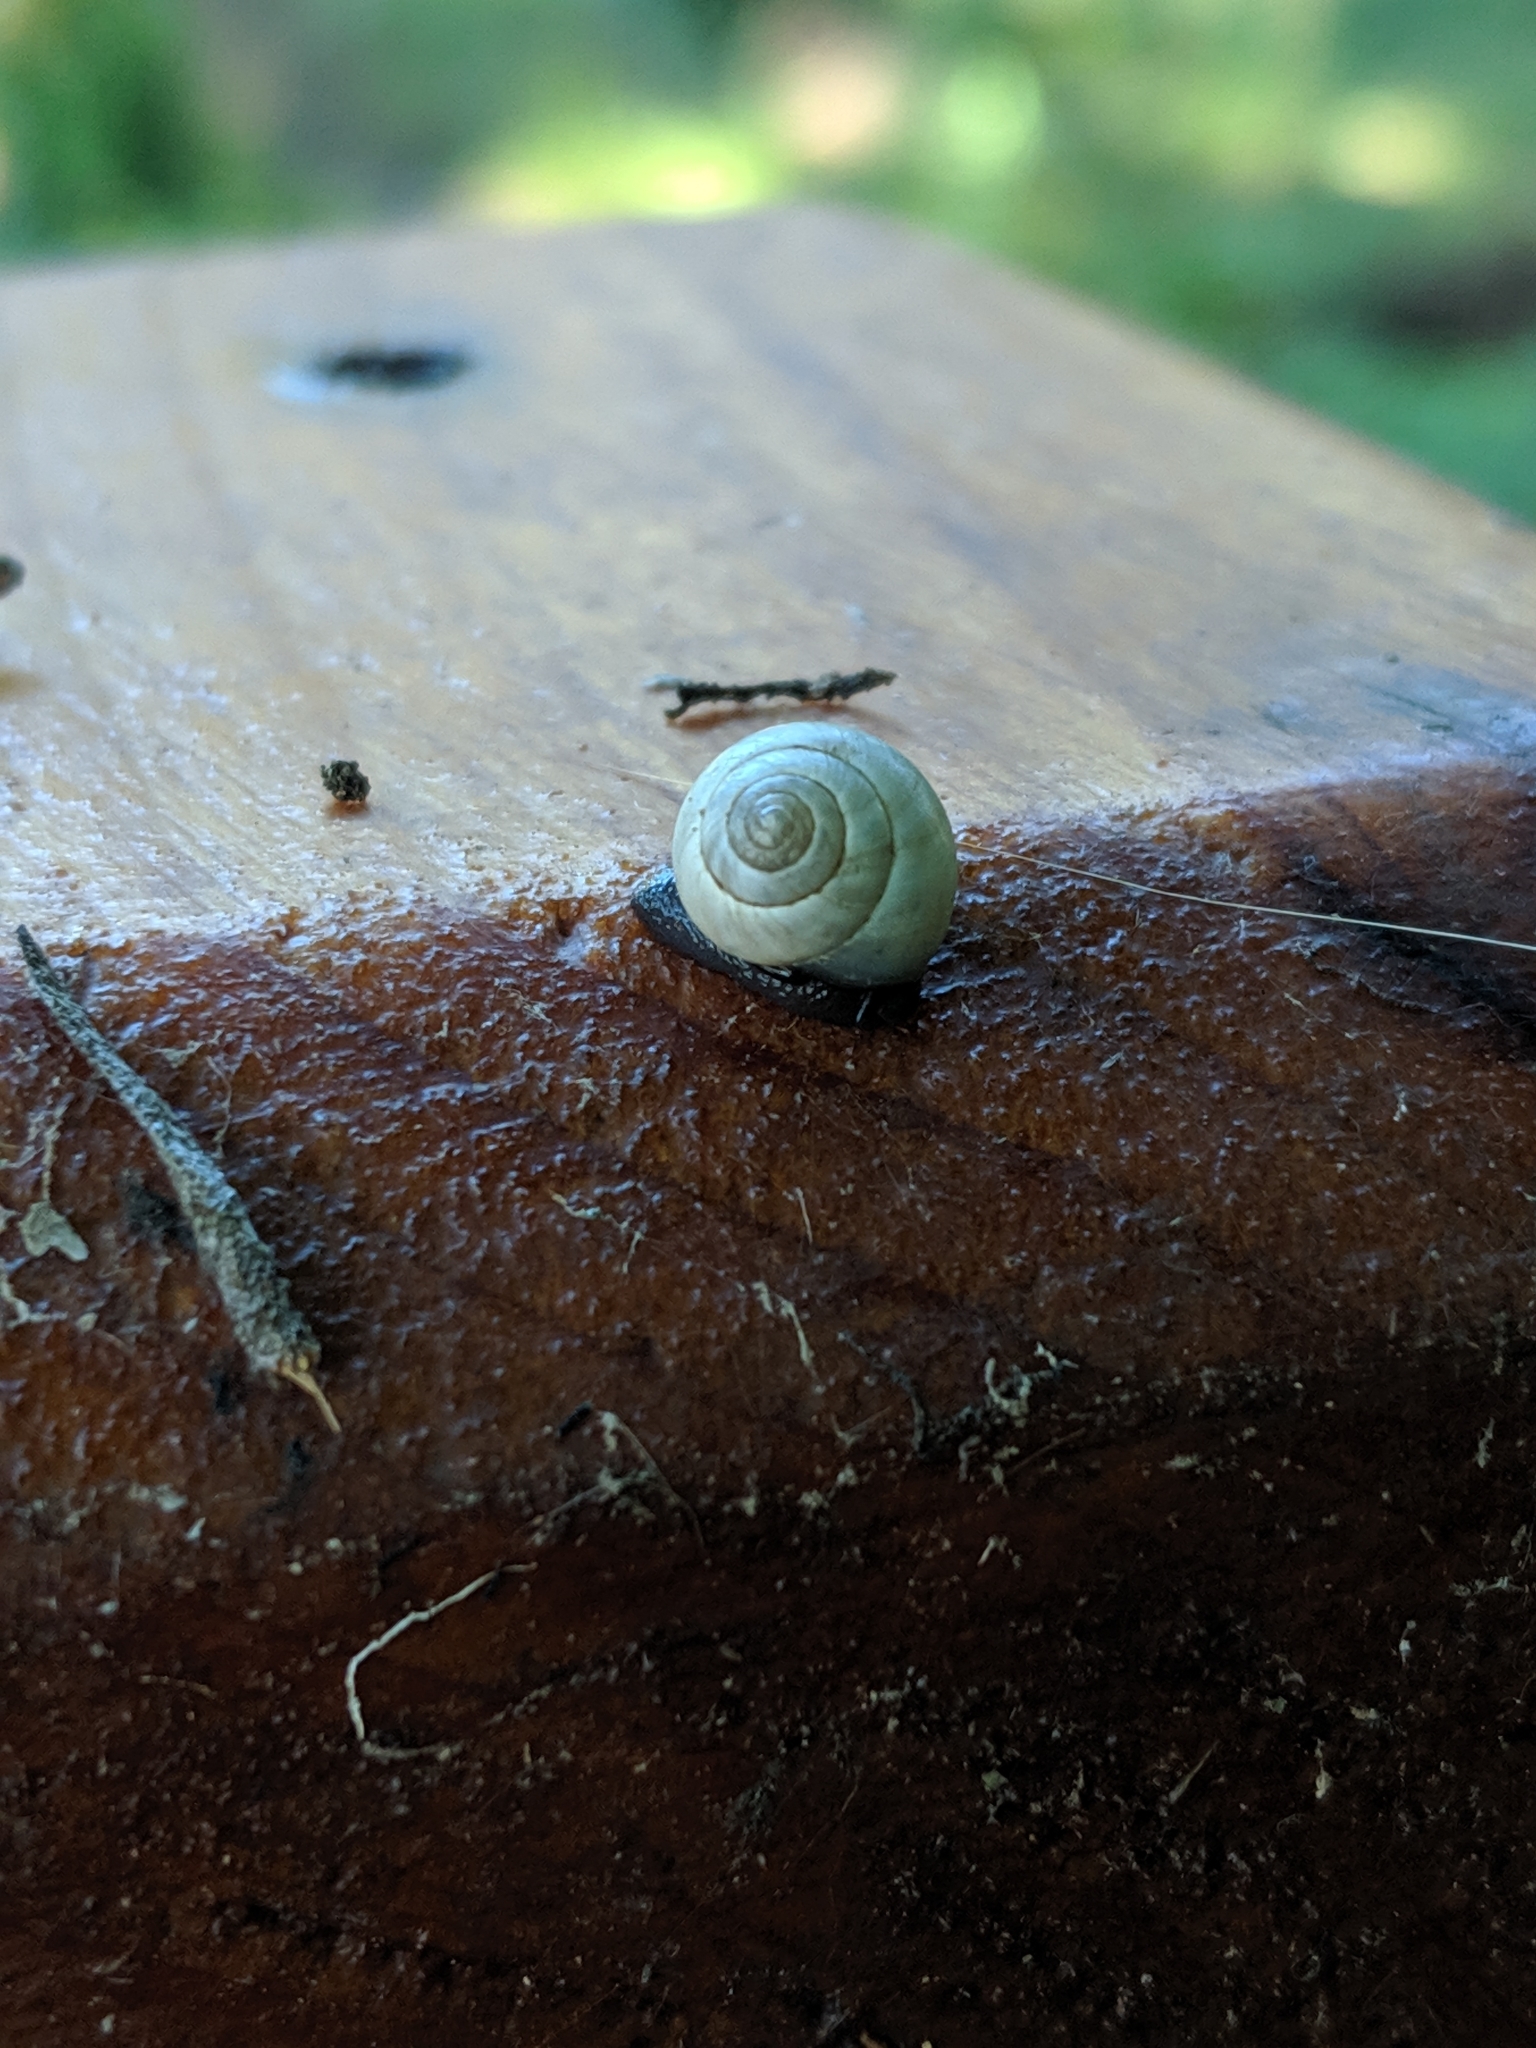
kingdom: Animalia
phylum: Mollusca
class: Gastropoda
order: Cycloneritida
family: Helicinidae
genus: Helicina
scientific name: Helicina orbiculata
